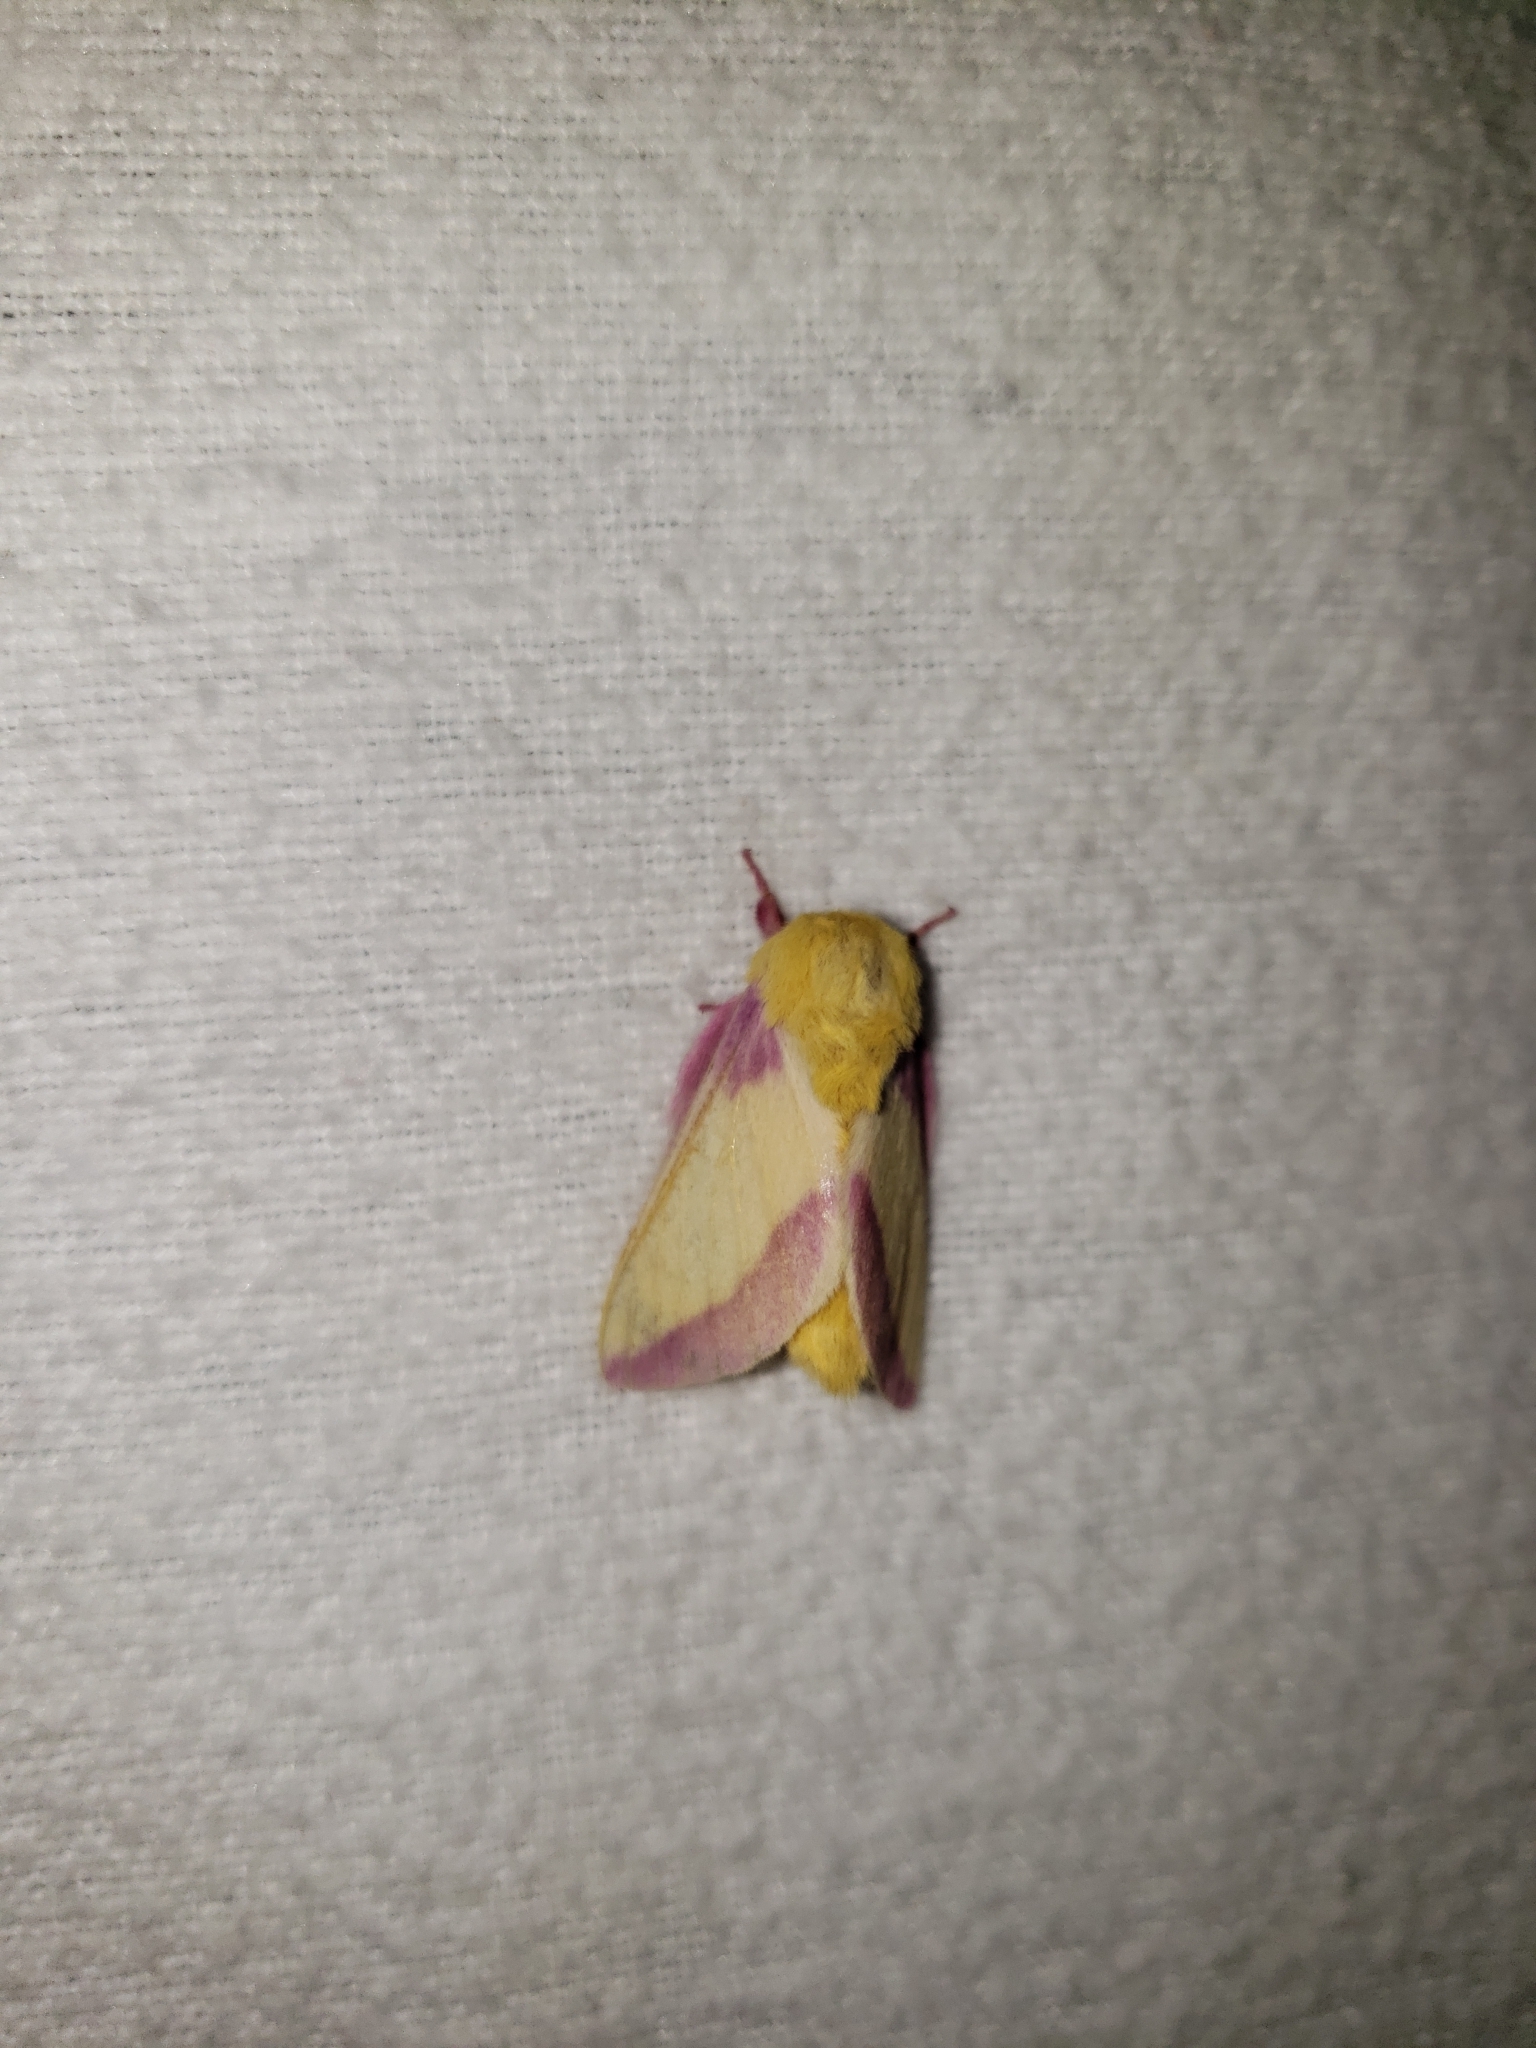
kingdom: Animalia
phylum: Arthropoda
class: Insecta
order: Lepidoptera
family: Saturniidae
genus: Dryocampa
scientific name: Dryocampa rubicunda
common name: Rosy maple moth
